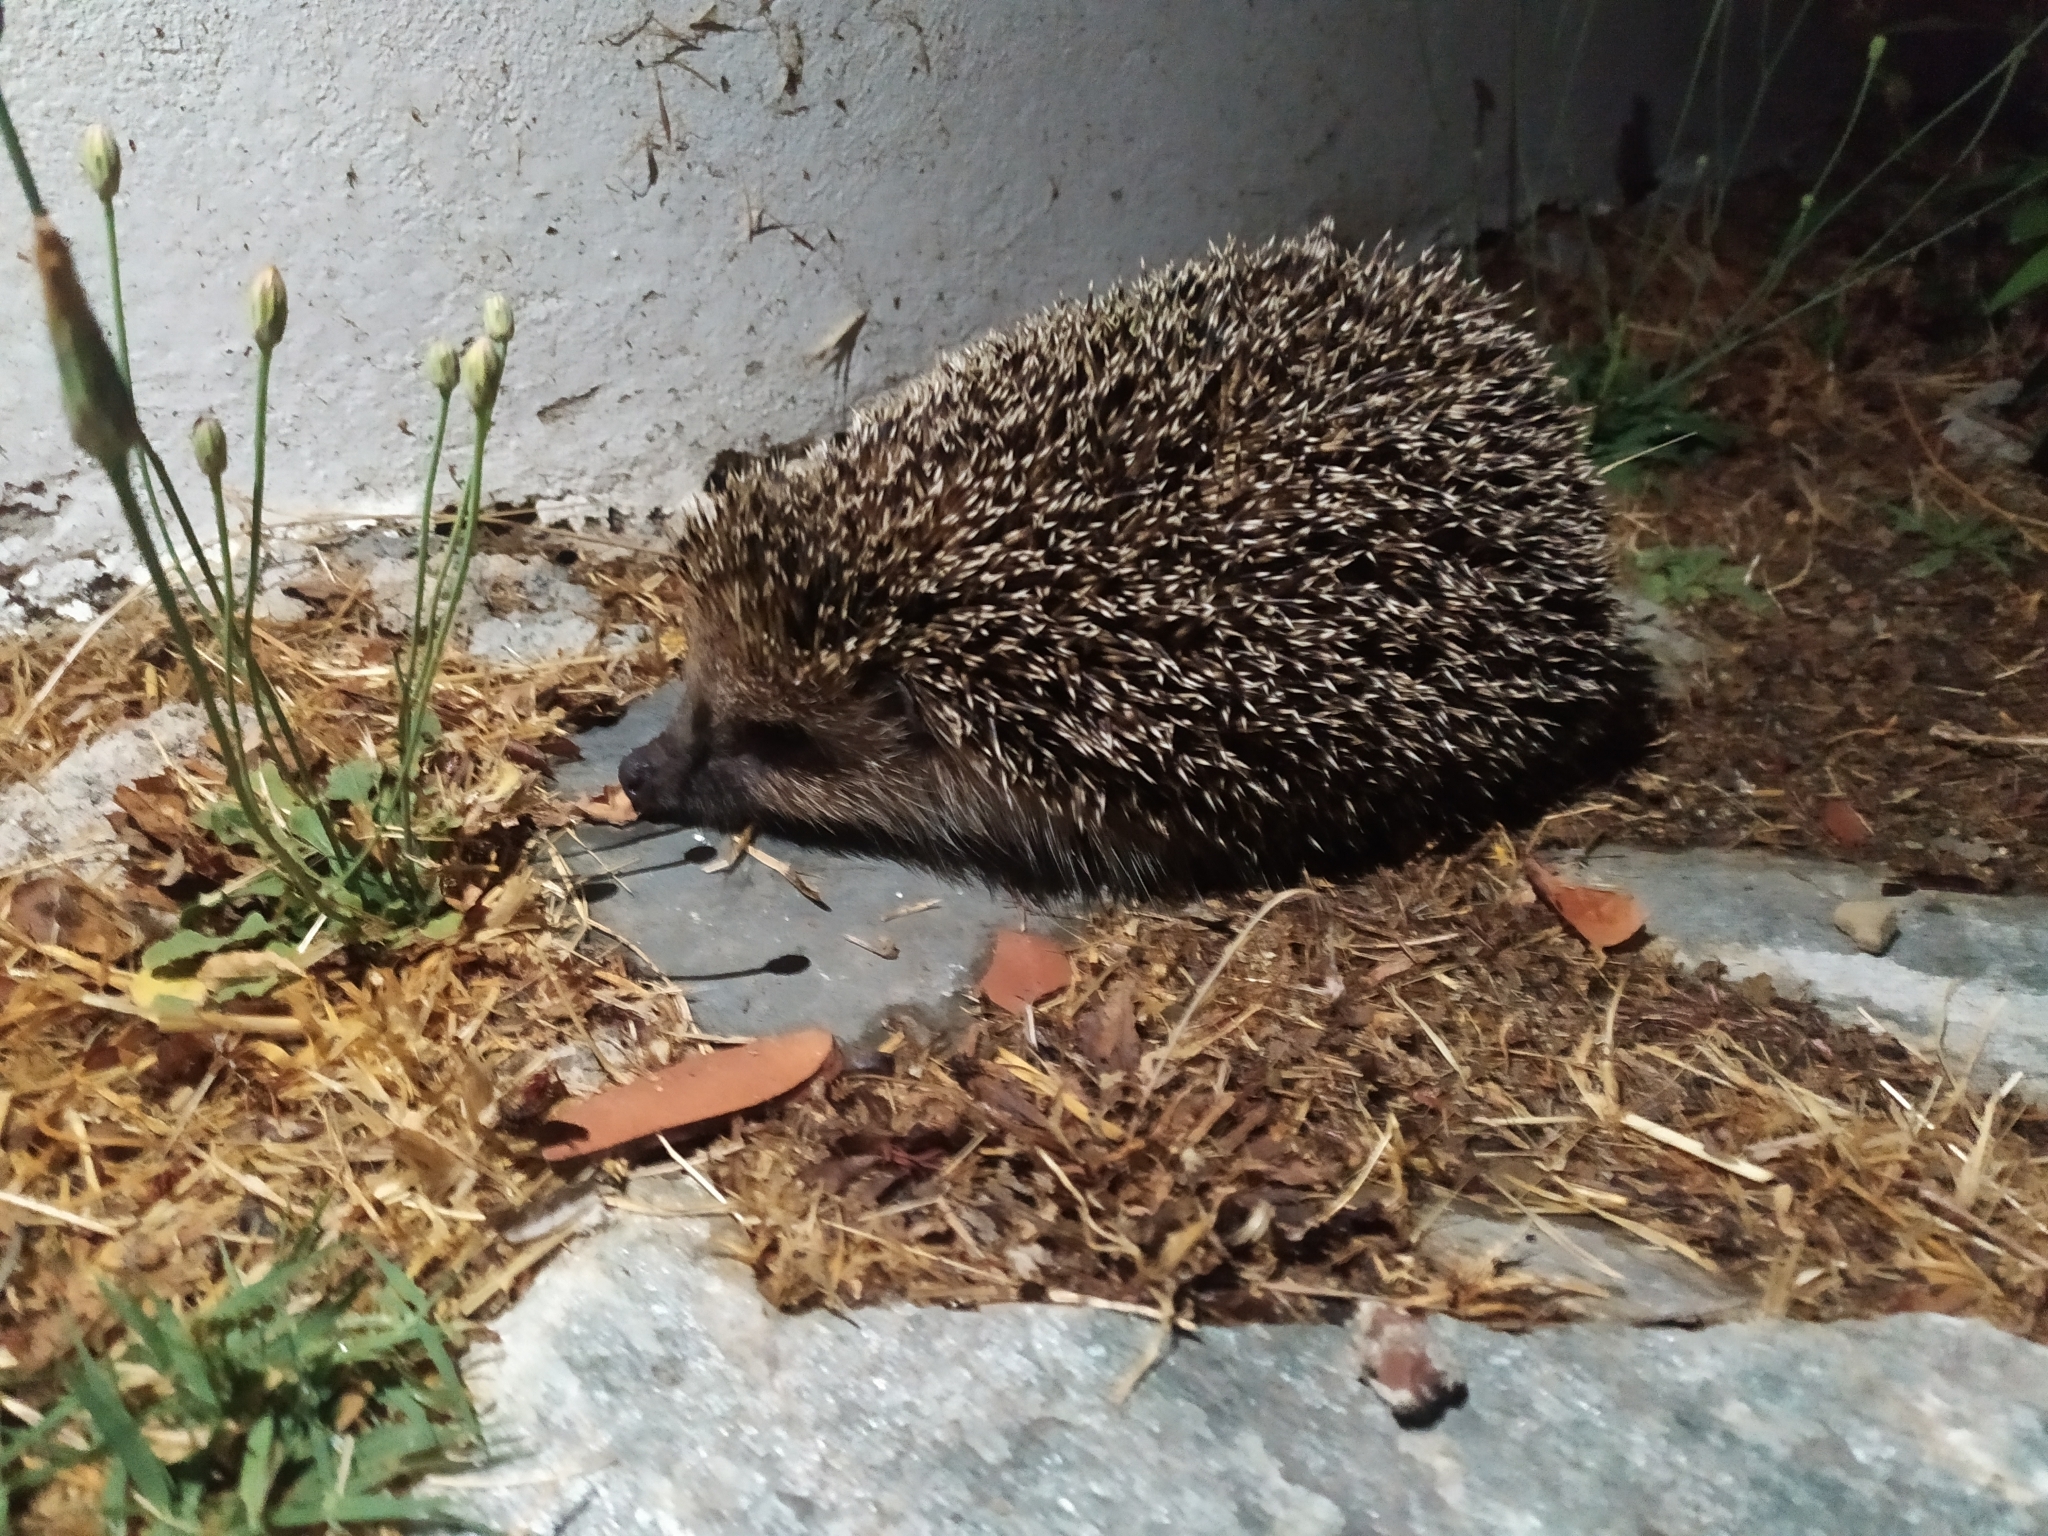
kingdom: Animalia
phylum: Chordata
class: Mammalia
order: Erinaceomorpha
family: Erinaceidae
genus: Erinaceus
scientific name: Erinaceus roumanicus
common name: Northern white-breasted hedgehog
